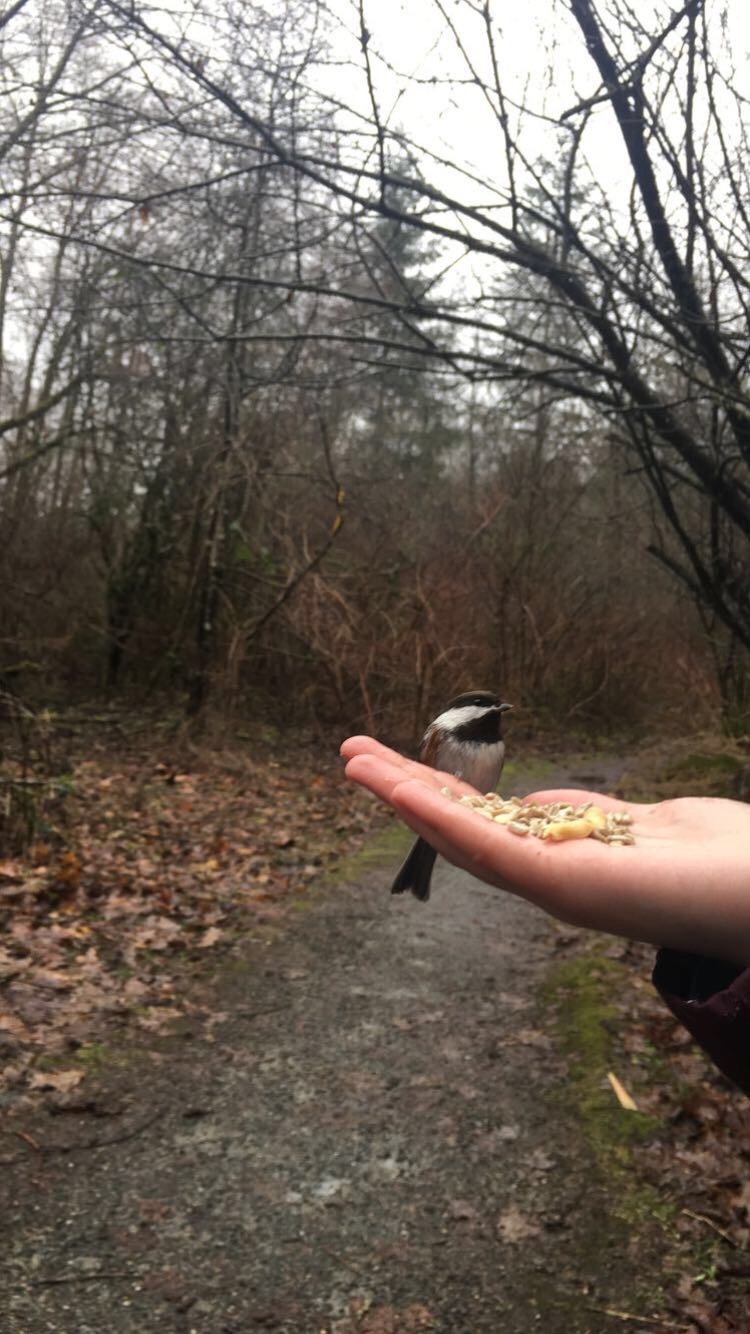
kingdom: Animalia
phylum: Chordata
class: Aves
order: Passeriformes
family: Paridae
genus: Poecile
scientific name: Poecile rufescens
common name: Chestnut-backed chickadee
